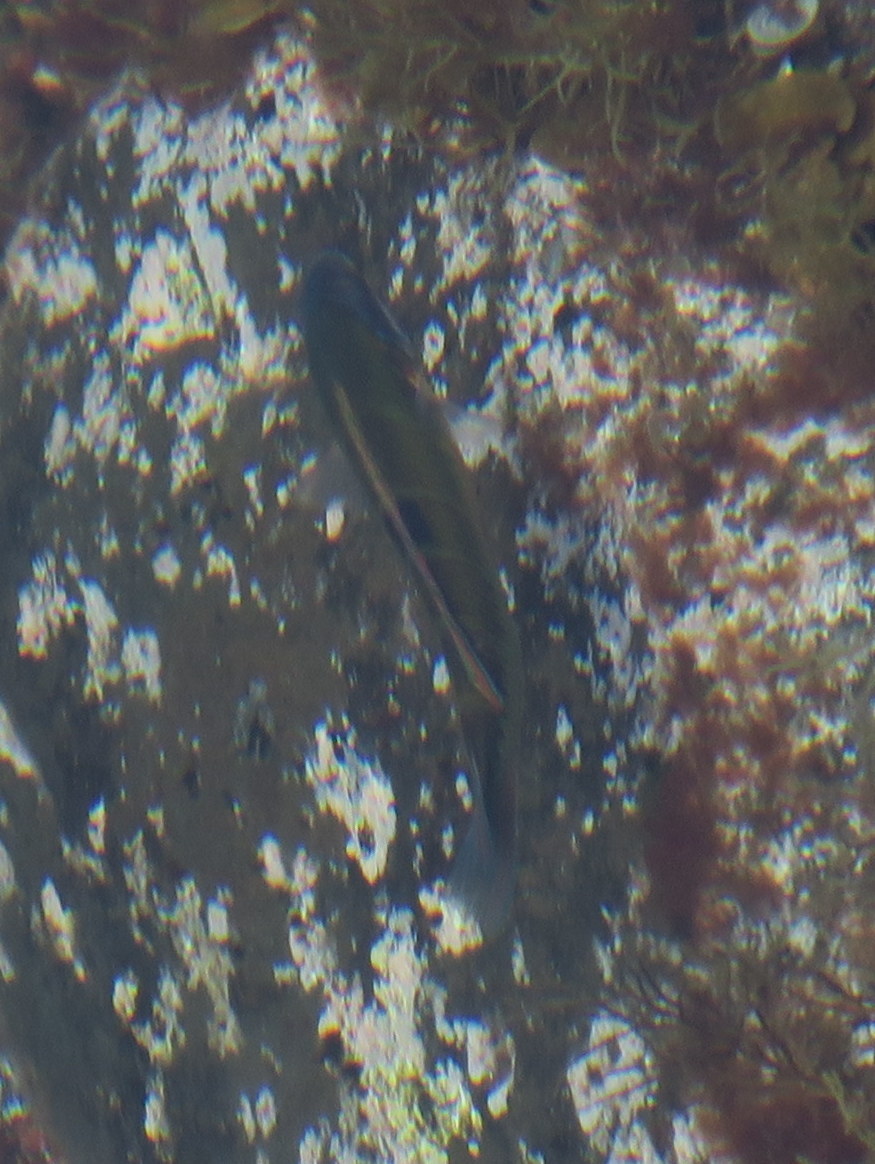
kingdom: Animalia
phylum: Chordata
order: Perciformes
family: Labridae
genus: Thalassoma
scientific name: Thalassoma pavo
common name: Ornate wrasse
